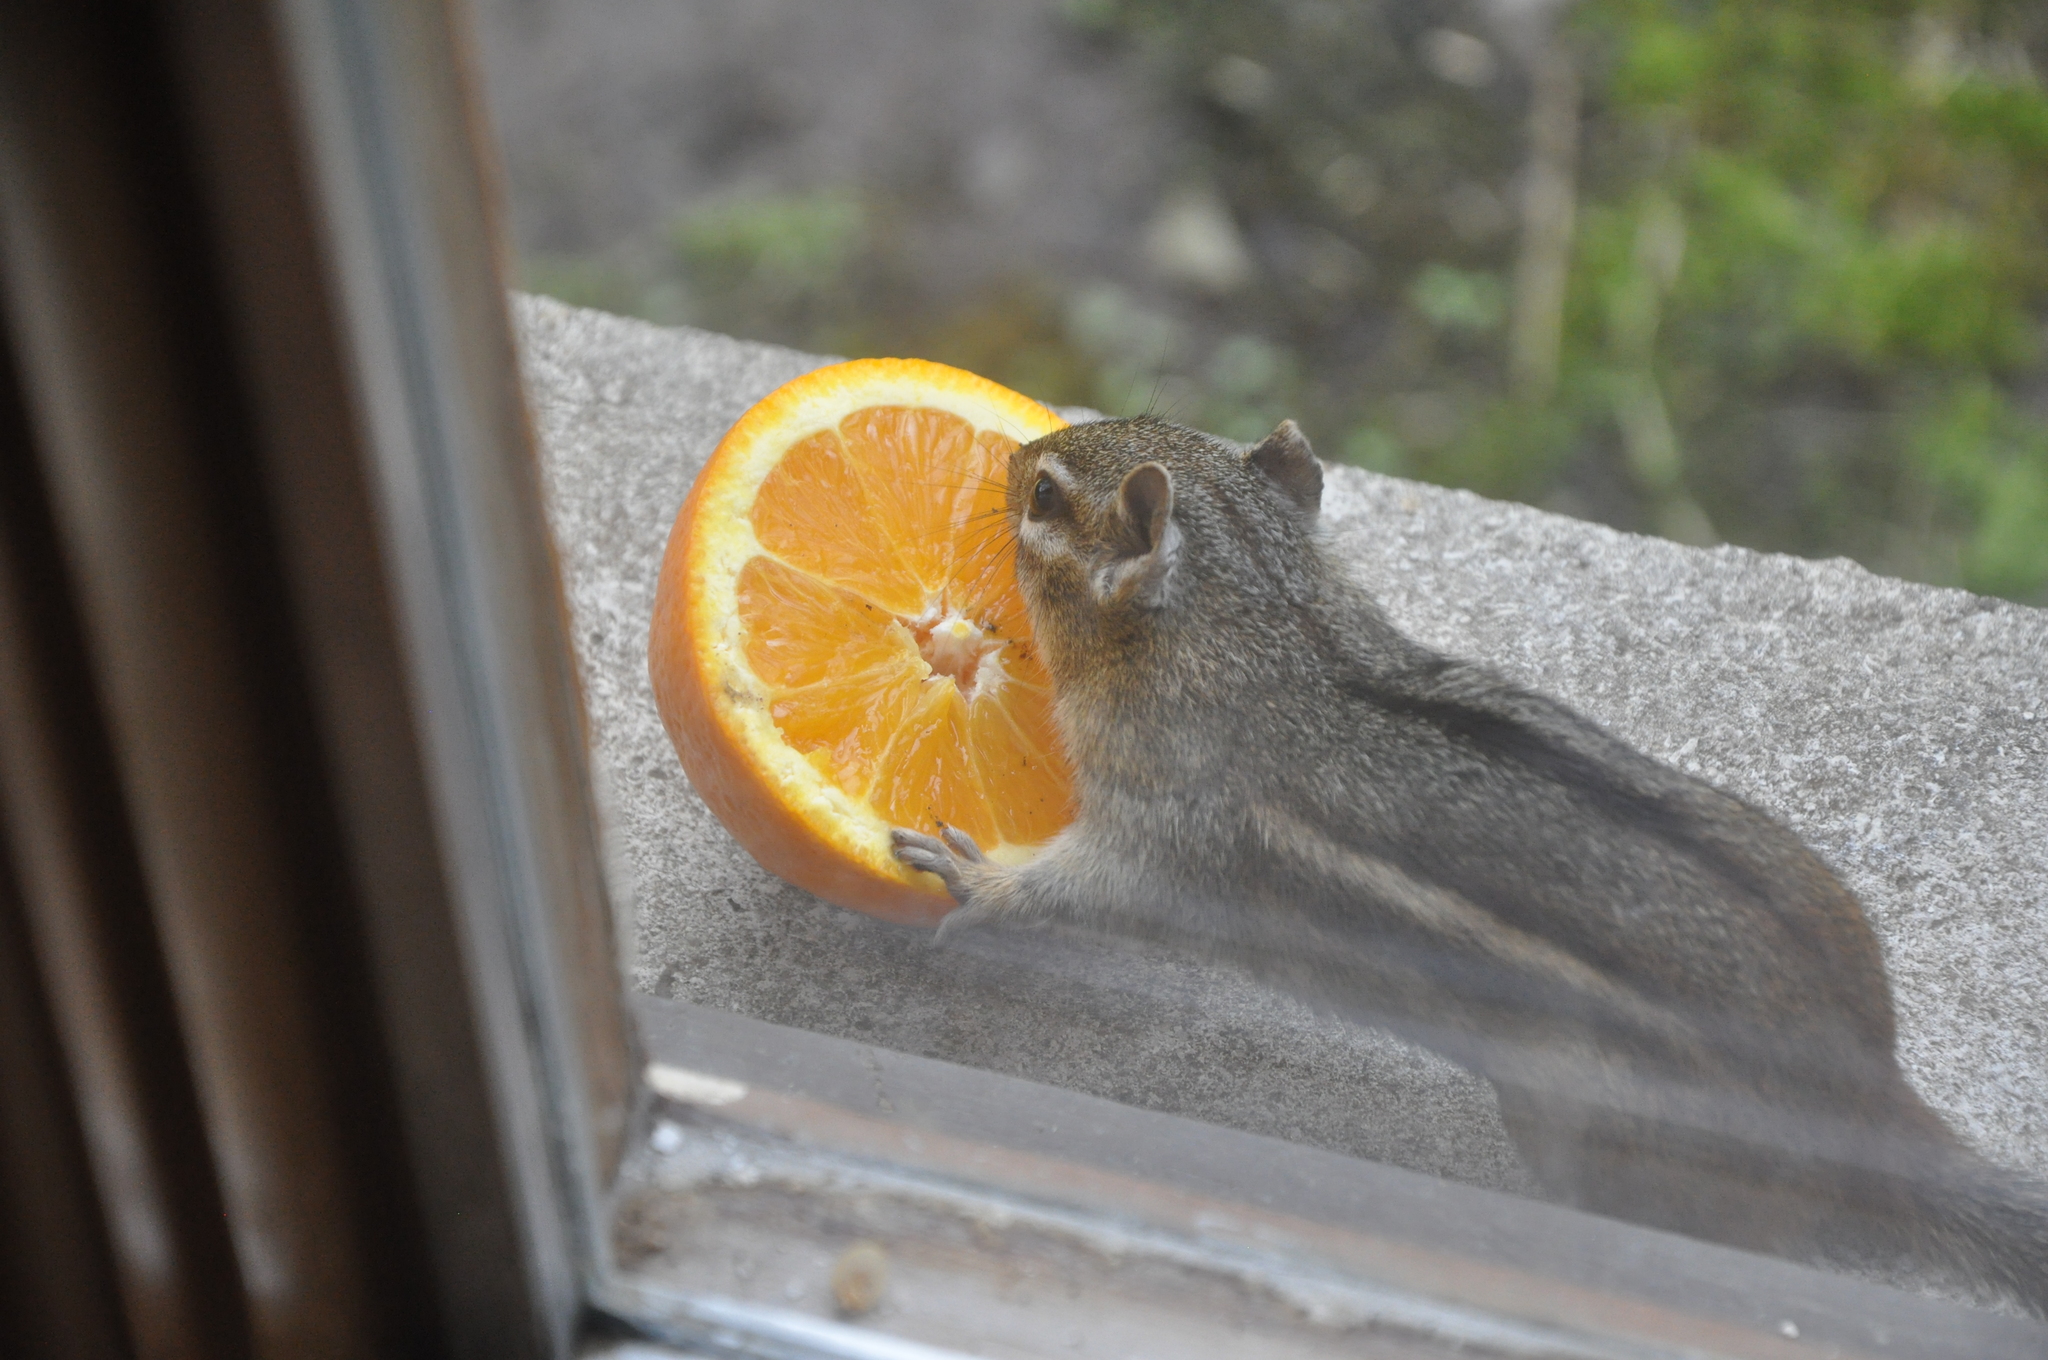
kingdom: Animalia
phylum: Chordata
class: Mammalia
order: Rodentia
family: Sciuridae
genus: Tamias
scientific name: Tamias striatus
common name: Eastern chipmunk
